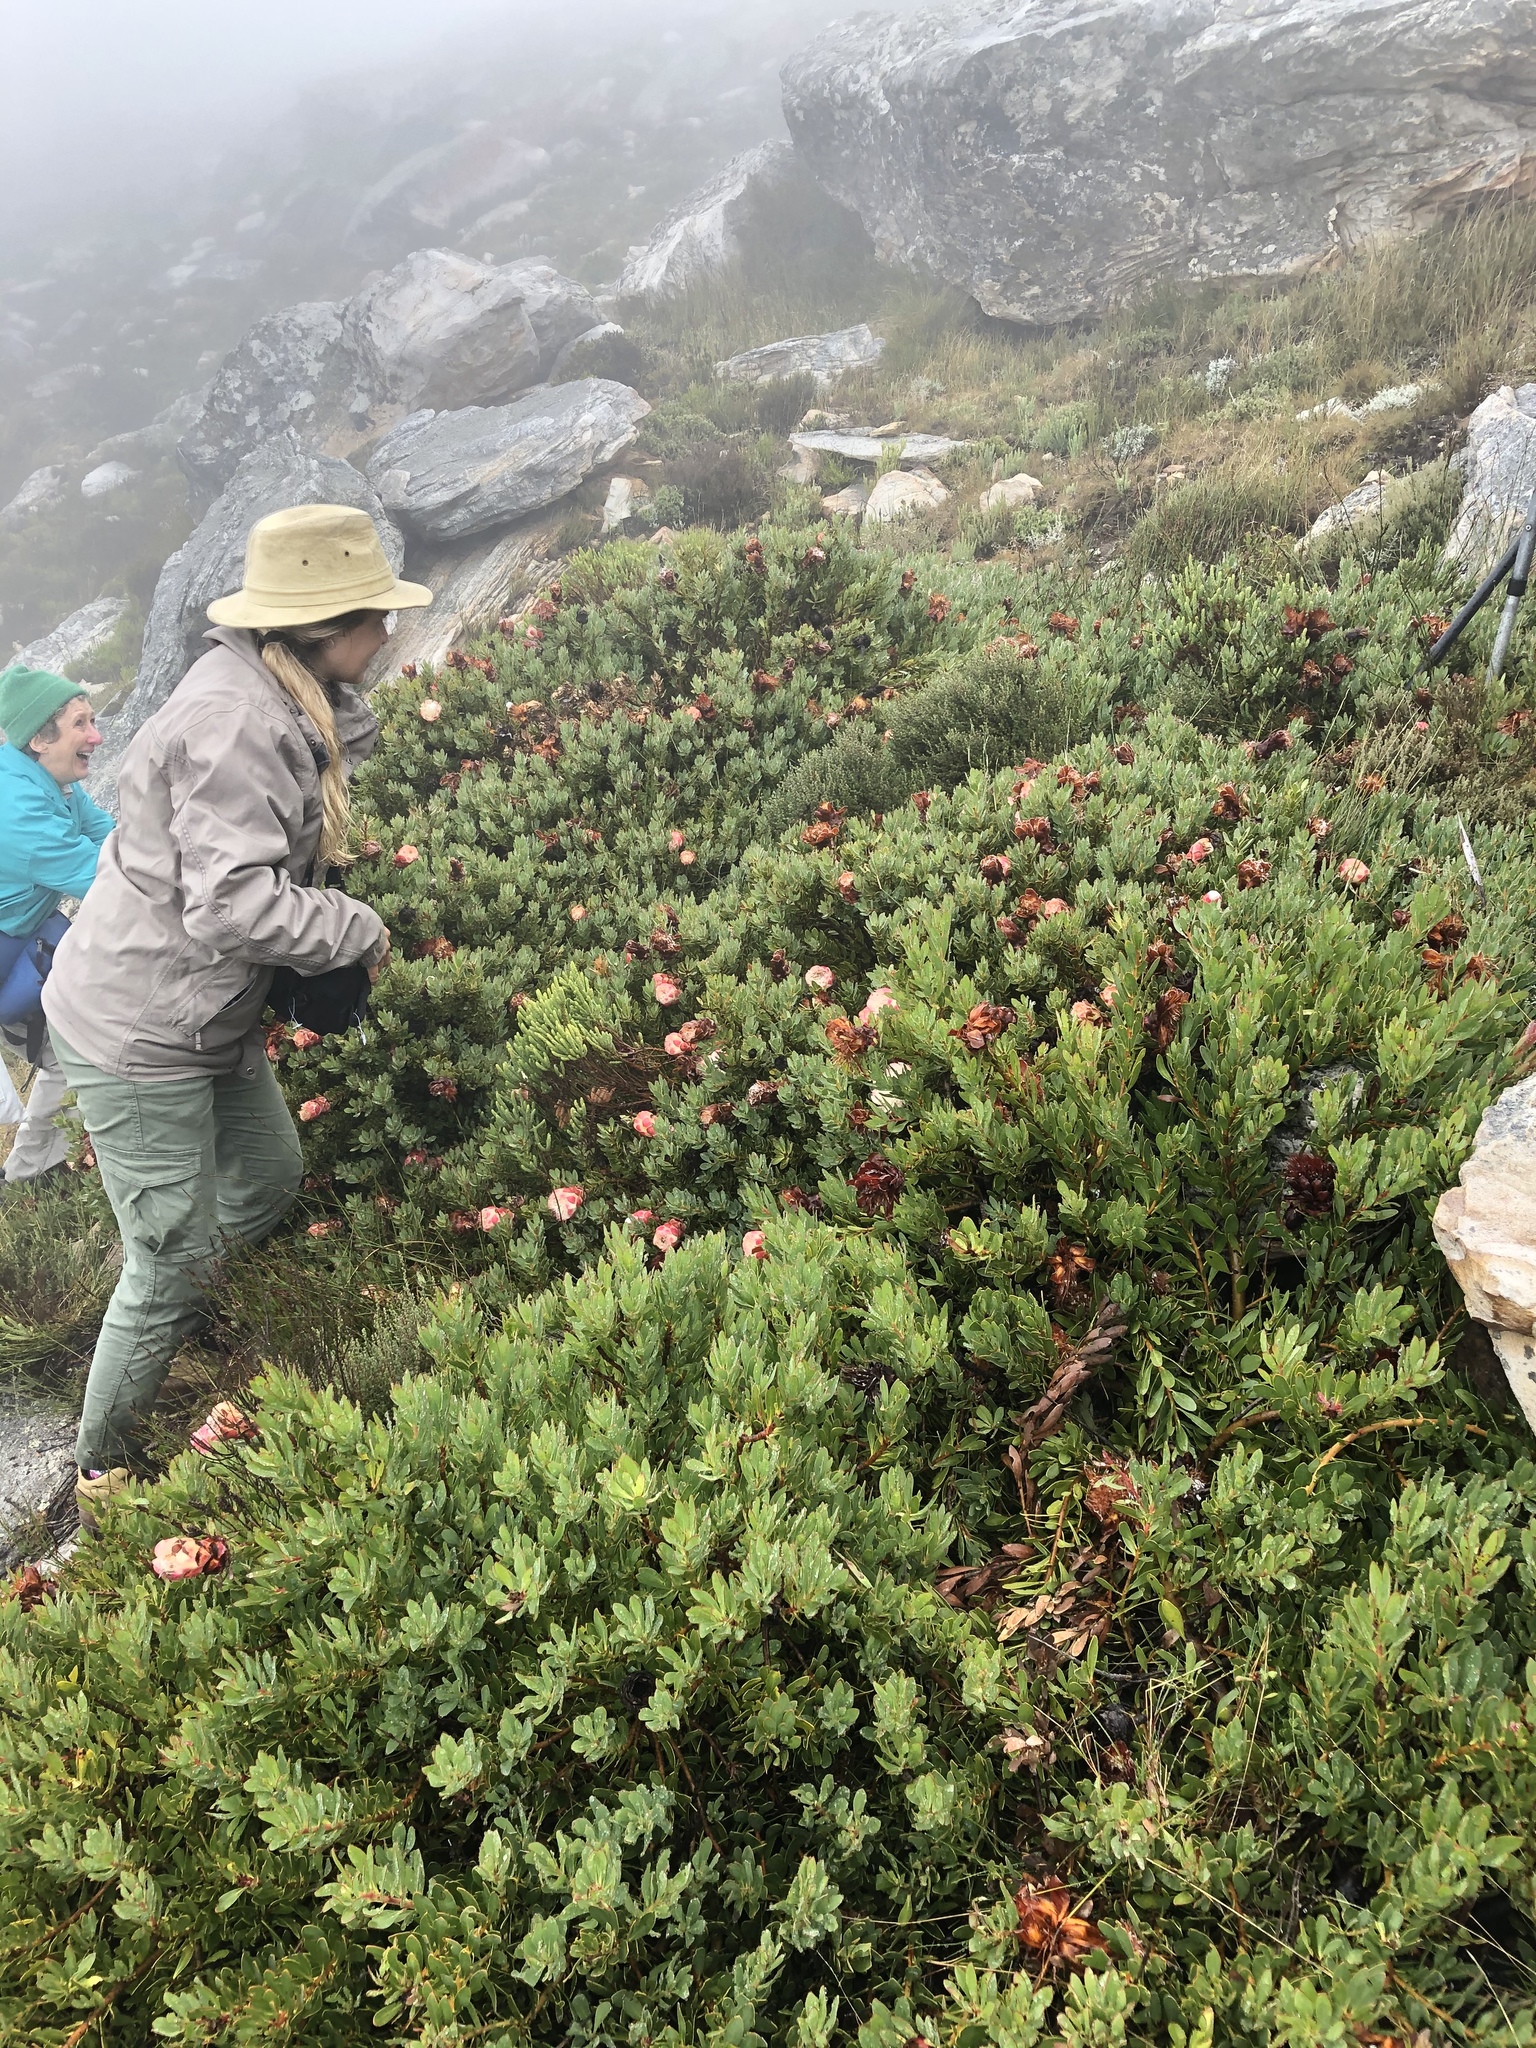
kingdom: Plantae
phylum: Tracheophyta
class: Magnoliopsida
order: Proteales
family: Proteaceae
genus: Protea
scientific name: Protea venusta
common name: Cascade sugarbush
